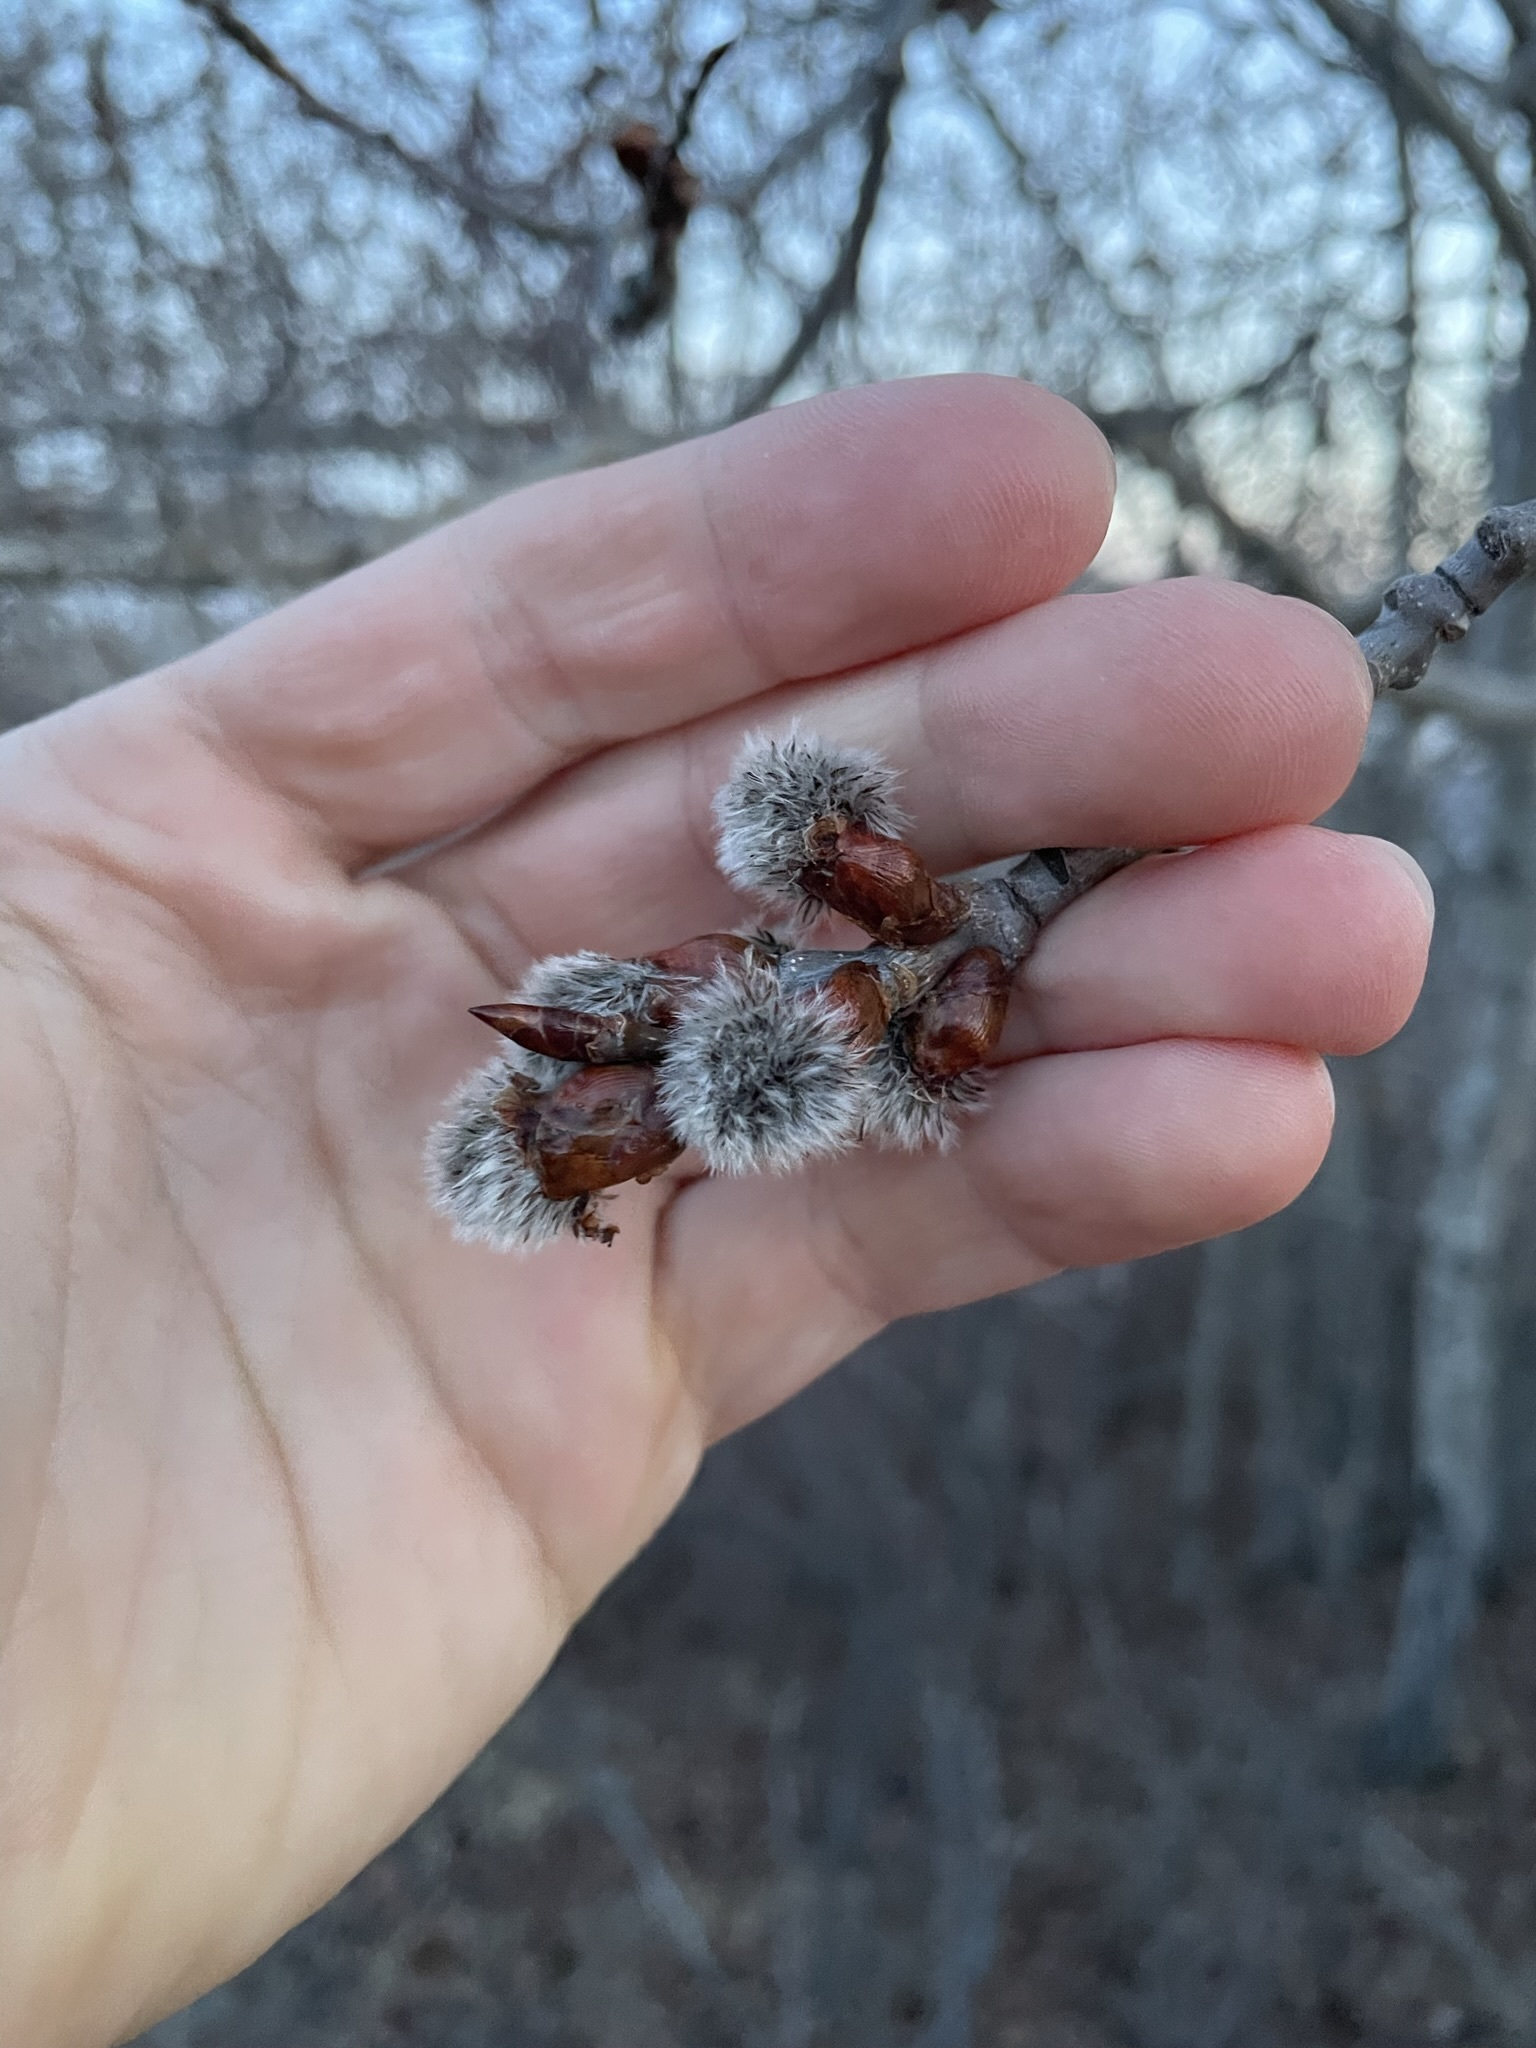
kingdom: Plantae
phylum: Tracheophyta
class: Magnoliopsida
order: Malpighiales
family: Salicaceae
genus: Populus
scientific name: Populus tremuloides
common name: Quaking aspen
